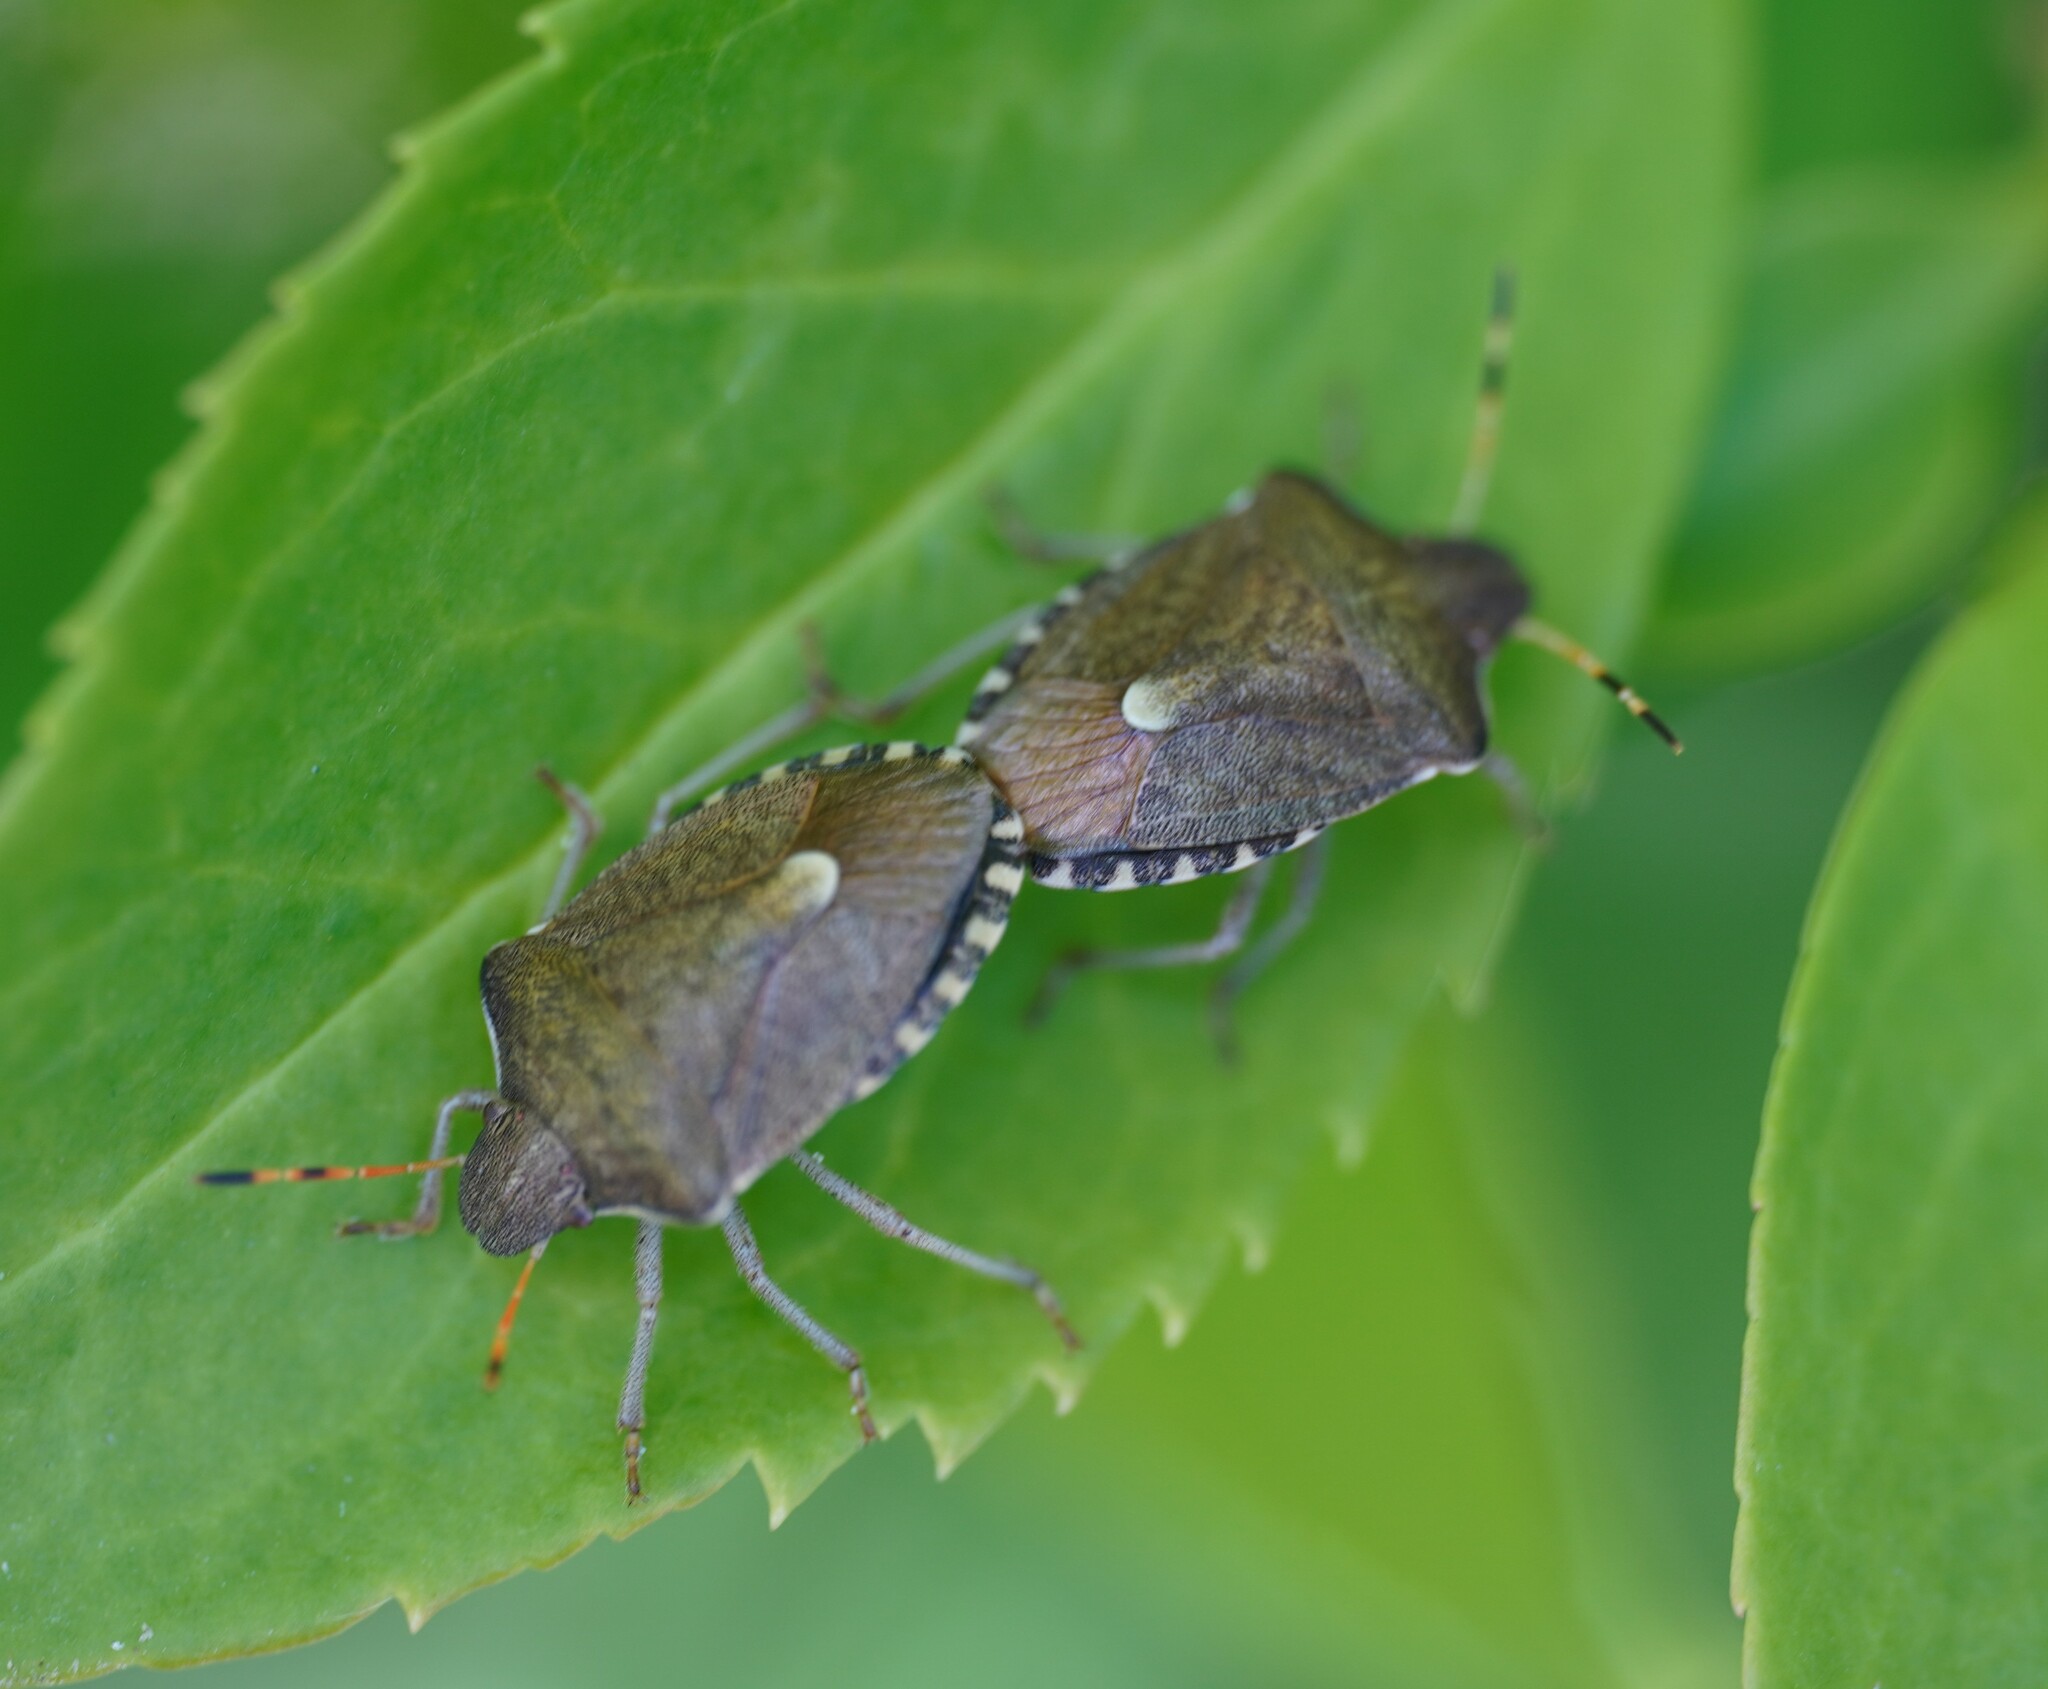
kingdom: Animalia
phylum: Arthropoda
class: Insecta
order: Hemiptera
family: Pentatomidae
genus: Holcostethus
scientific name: Holcostethus strictus
